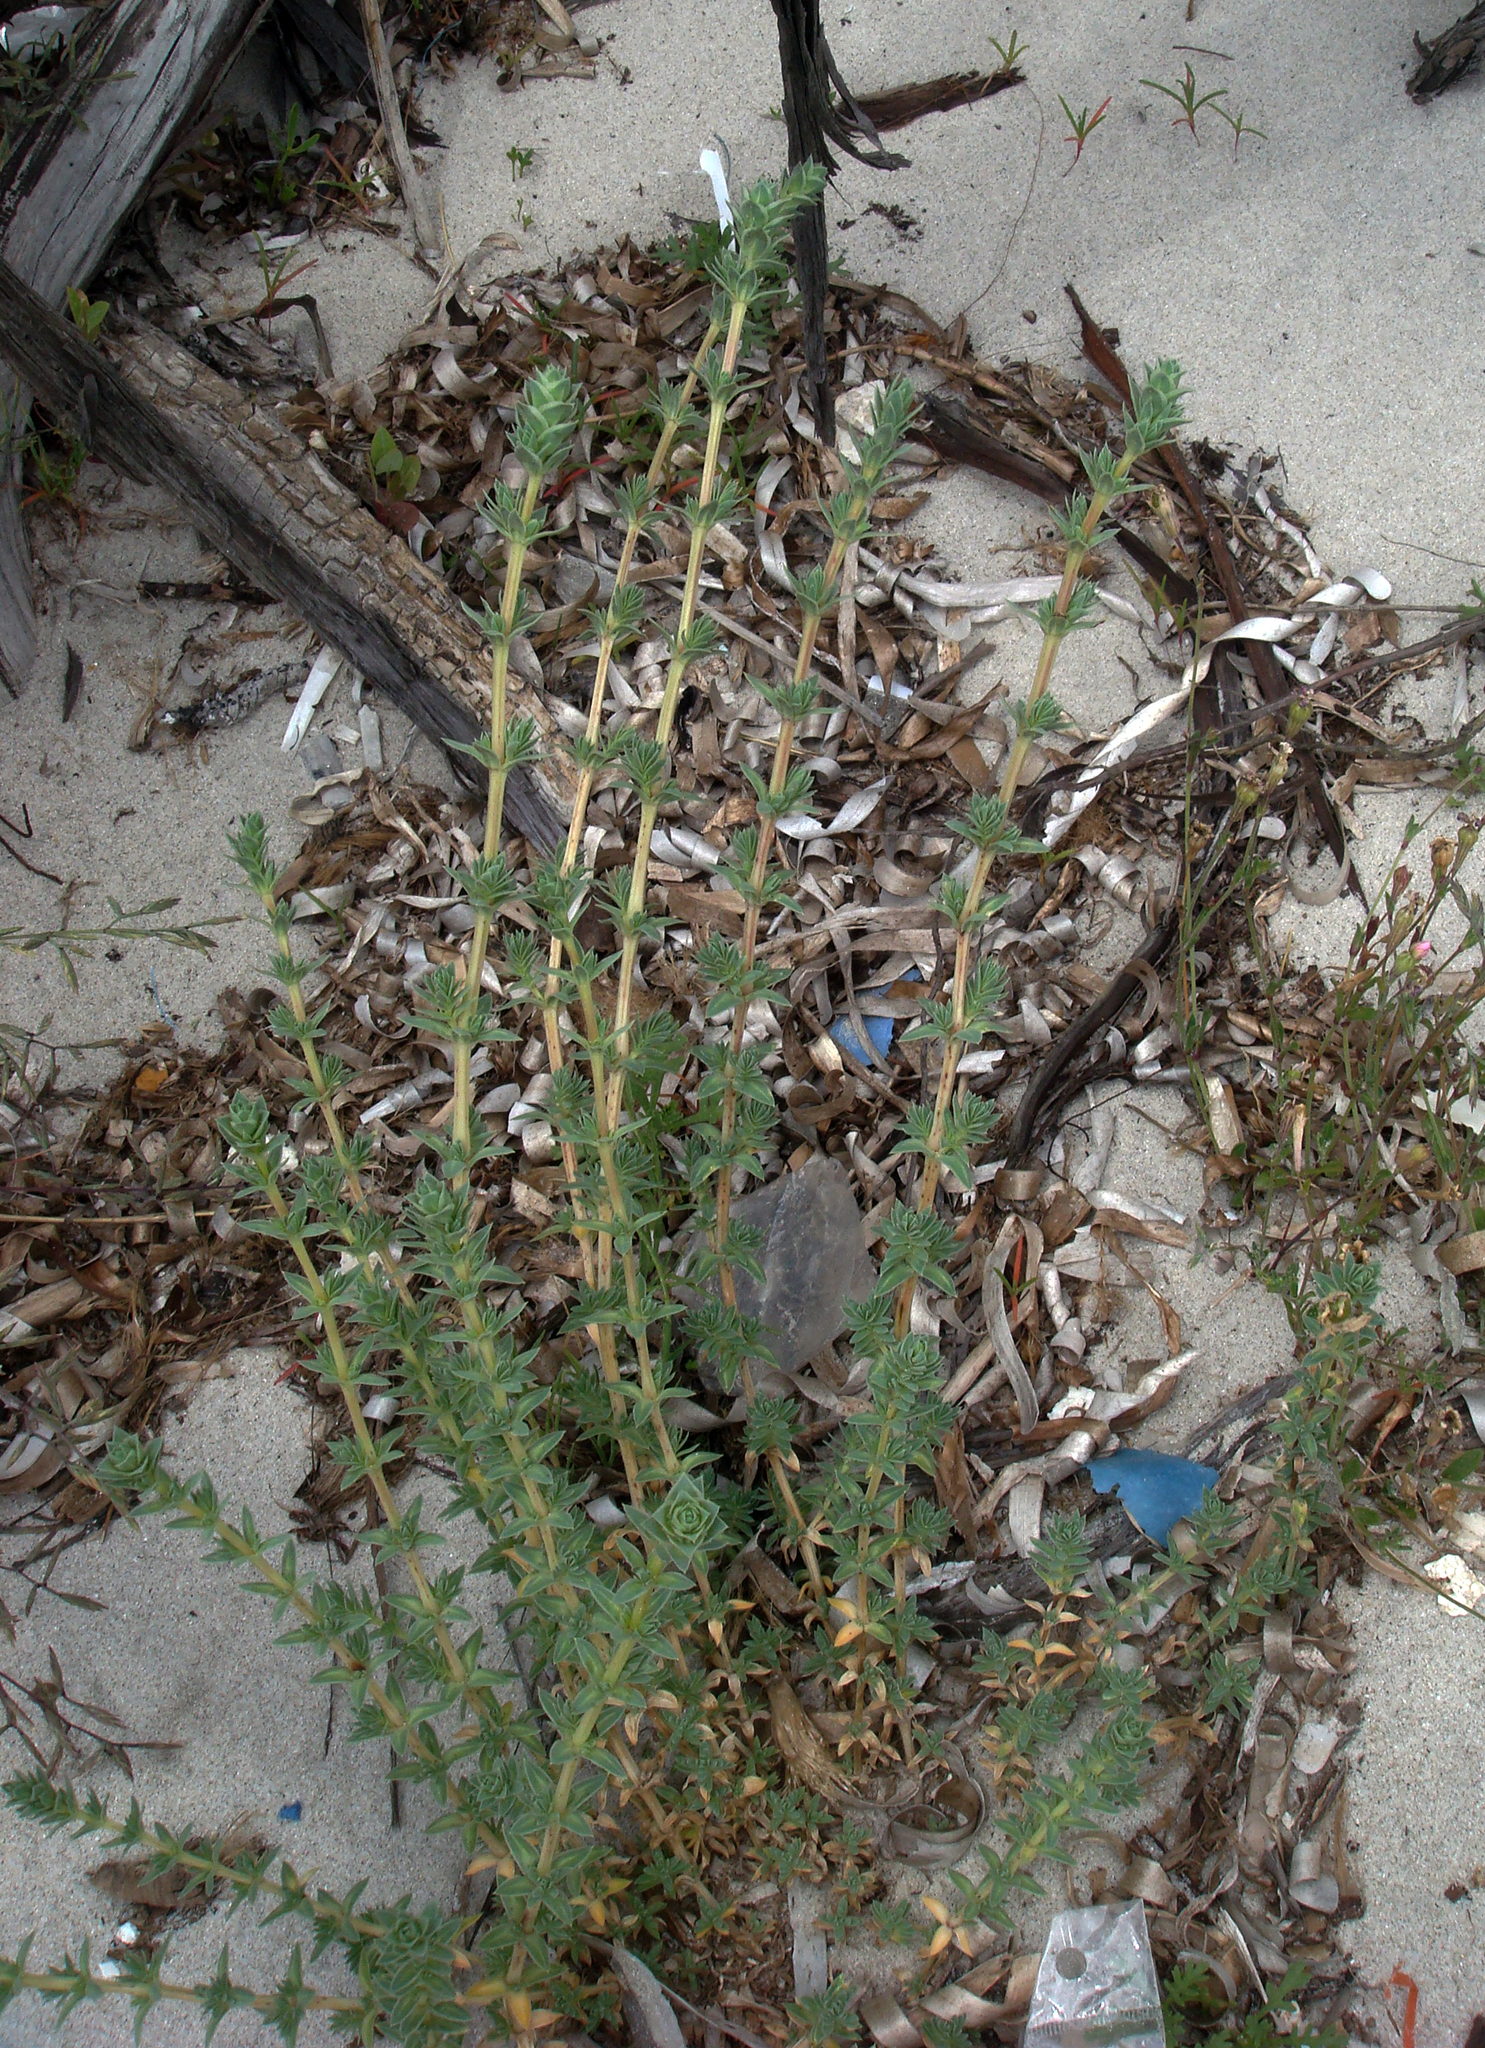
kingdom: Plantae
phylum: Tracheophyta
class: Magnoliopsida
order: Gentianales
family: Rubiaceae
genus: Crucianella
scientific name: Crucianella maritima
